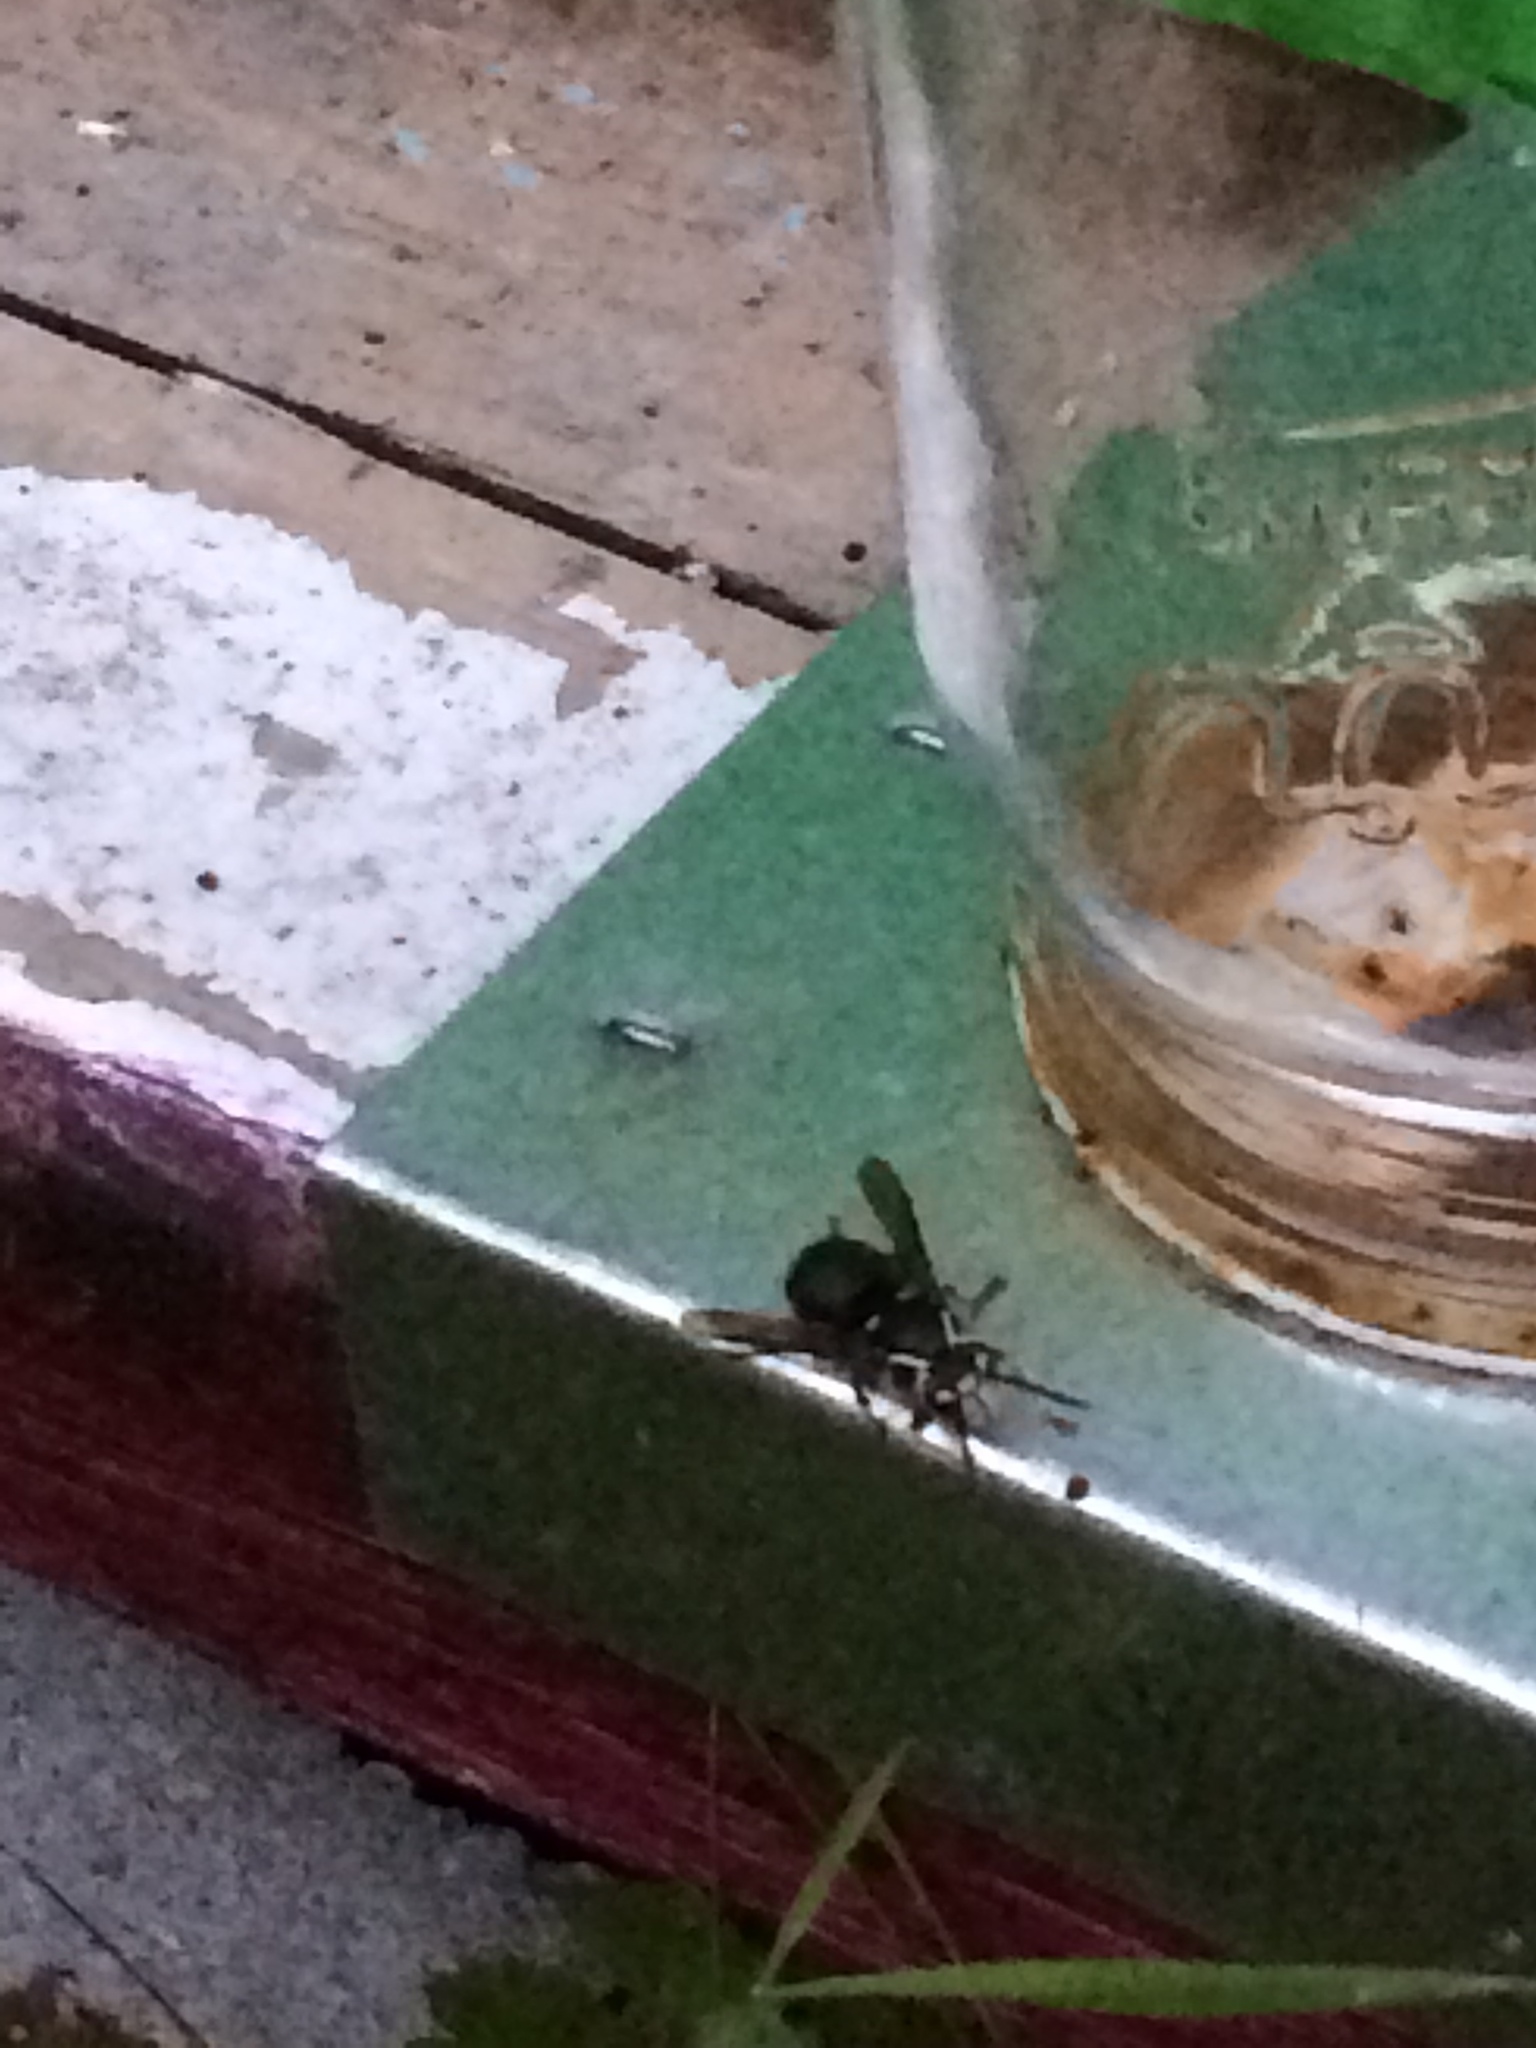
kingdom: Animalia
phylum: Arthropoda
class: Insecta
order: Hymenoptera
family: Vespidae
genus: Dolichovespula
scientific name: Dolichovespula maculata
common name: Bald-faced hornet
